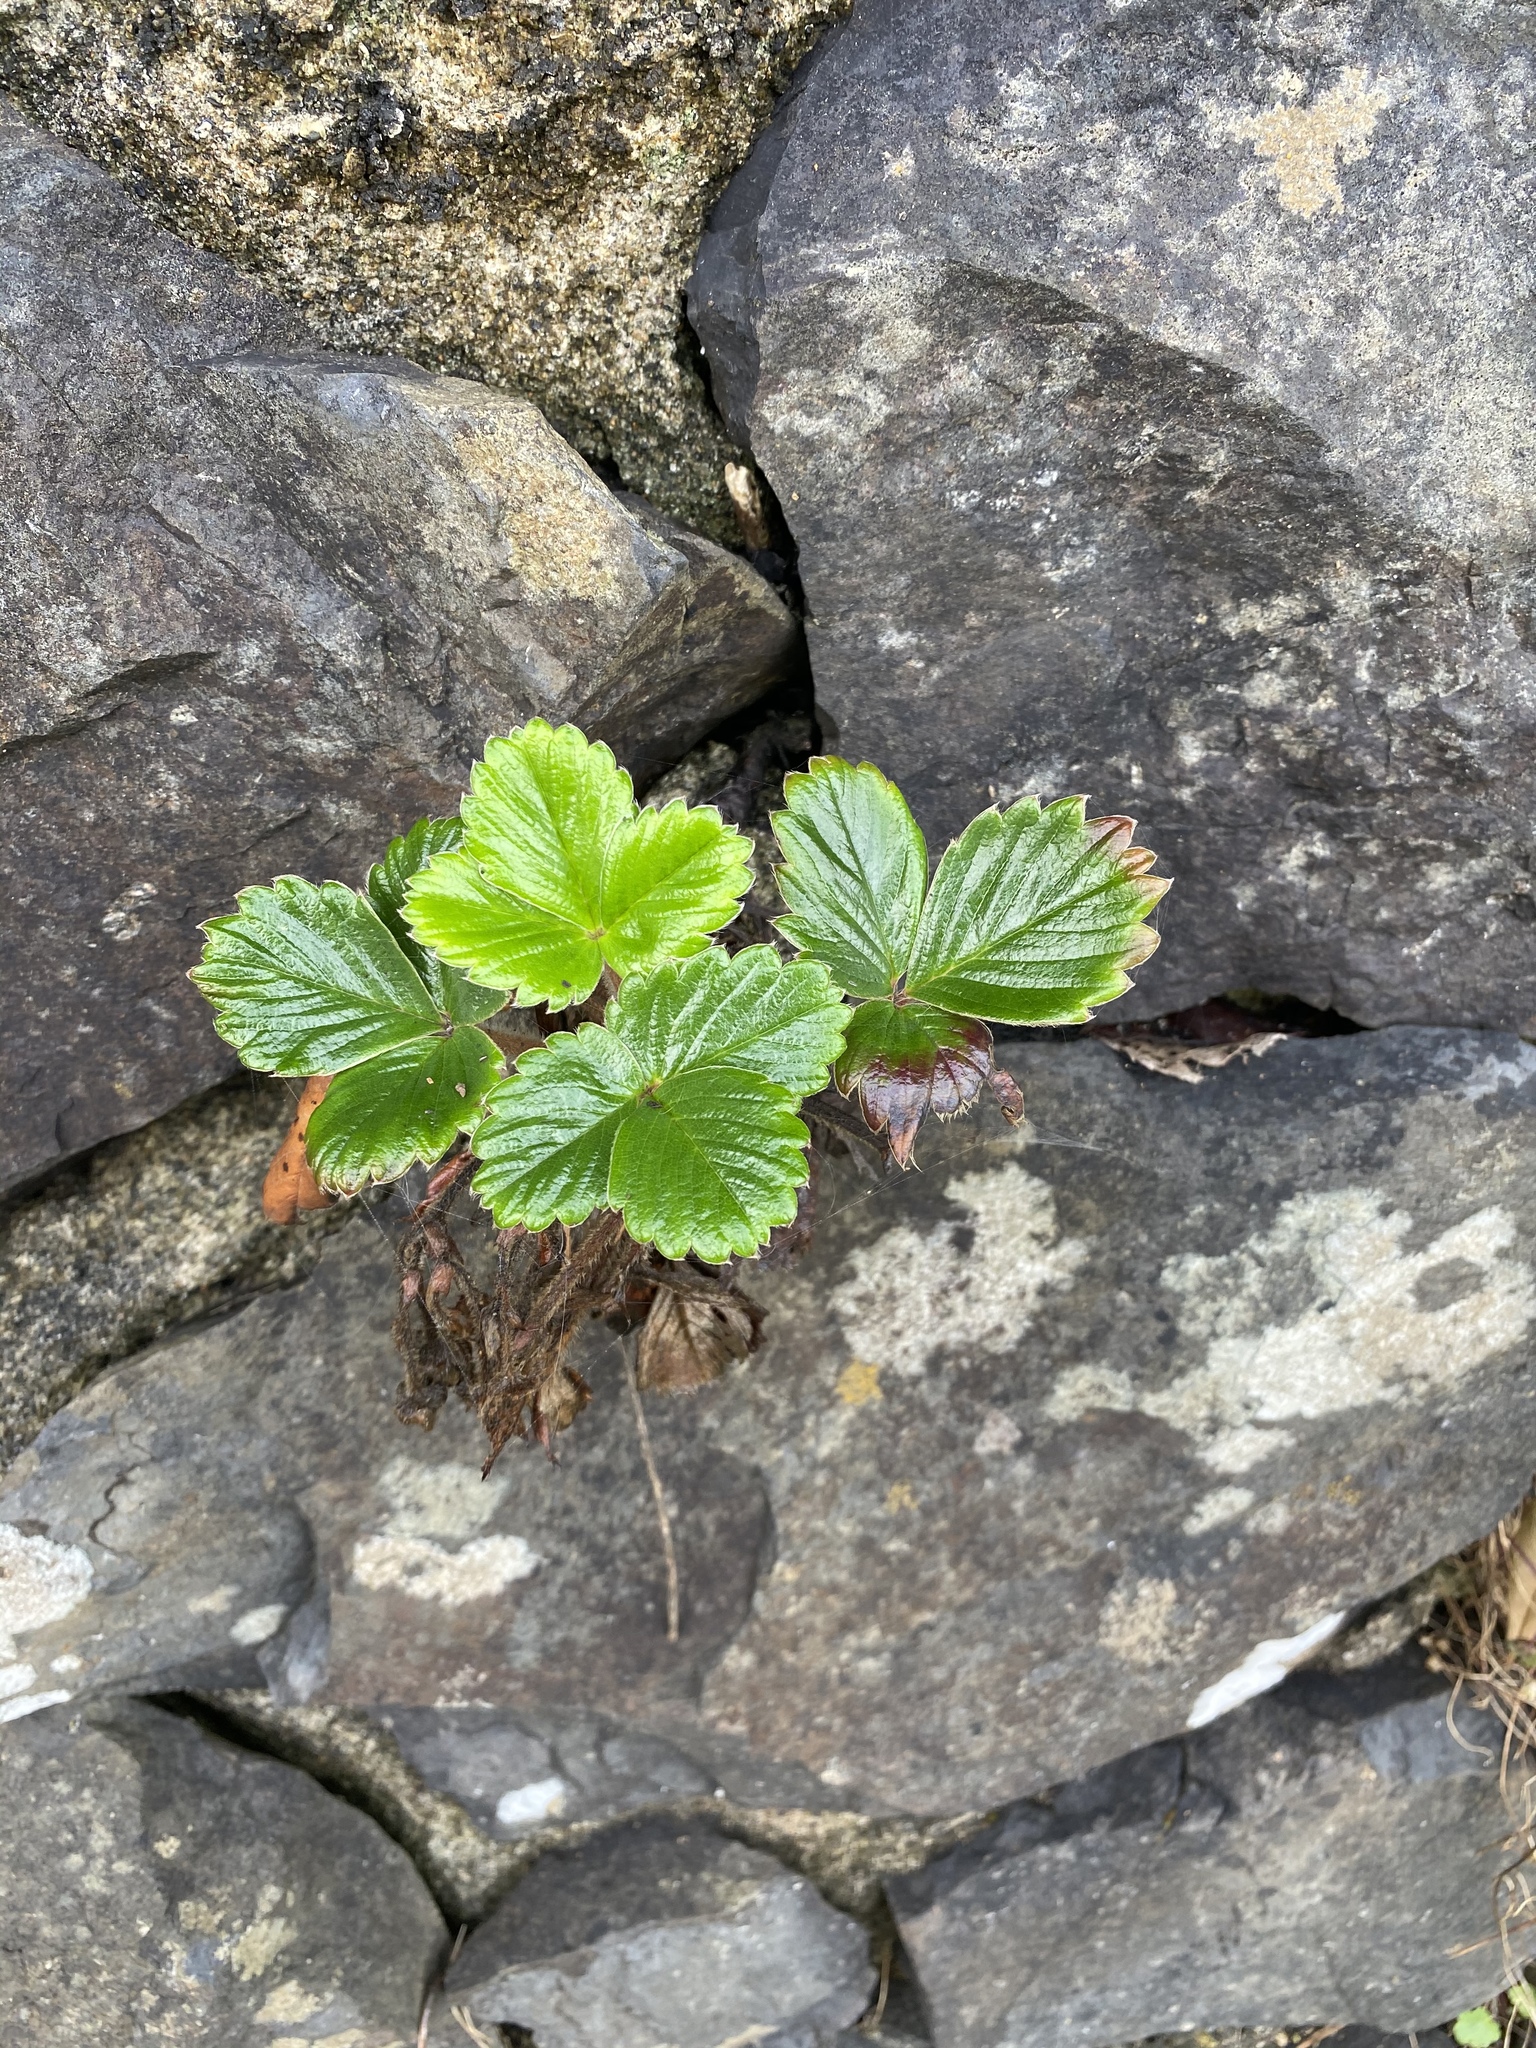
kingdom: Plantae
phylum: Tracheophyta
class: Magnoliopsida
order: Rosales
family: Rosaceae
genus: Fragaria
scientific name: Fragaria chiloensis
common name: Beach strawberry
